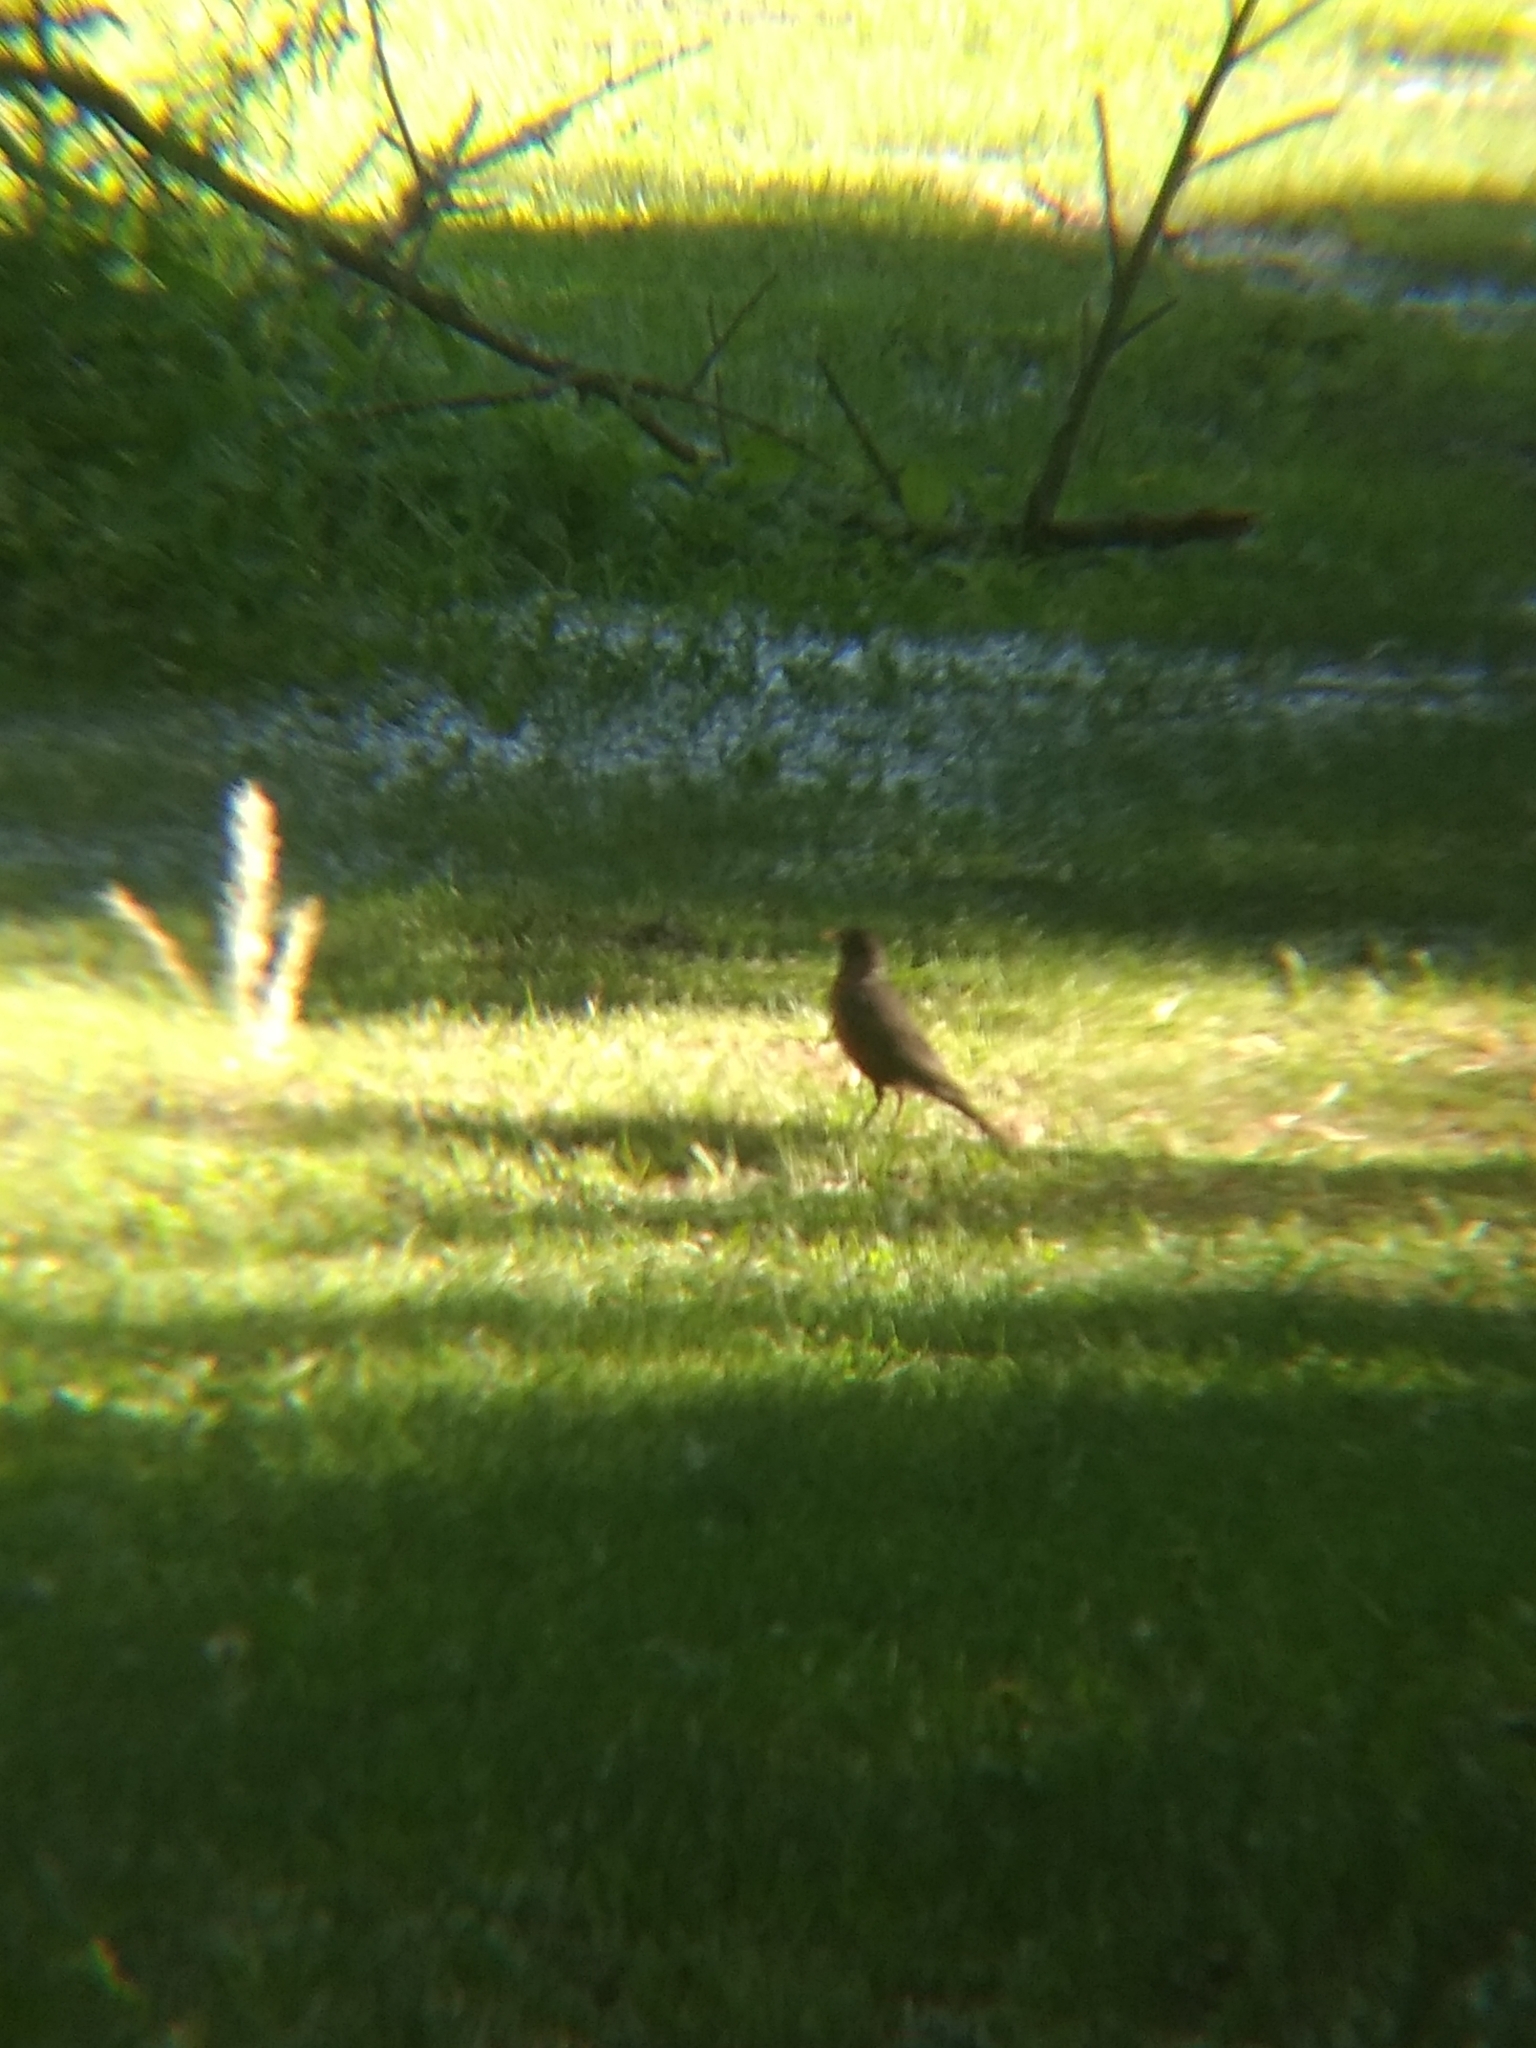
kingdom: Animalia
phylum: Chordata
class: Aves
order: Passeriformes
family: Turdidae
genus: Turdus
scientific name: Turdus migratorius
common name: American robin
